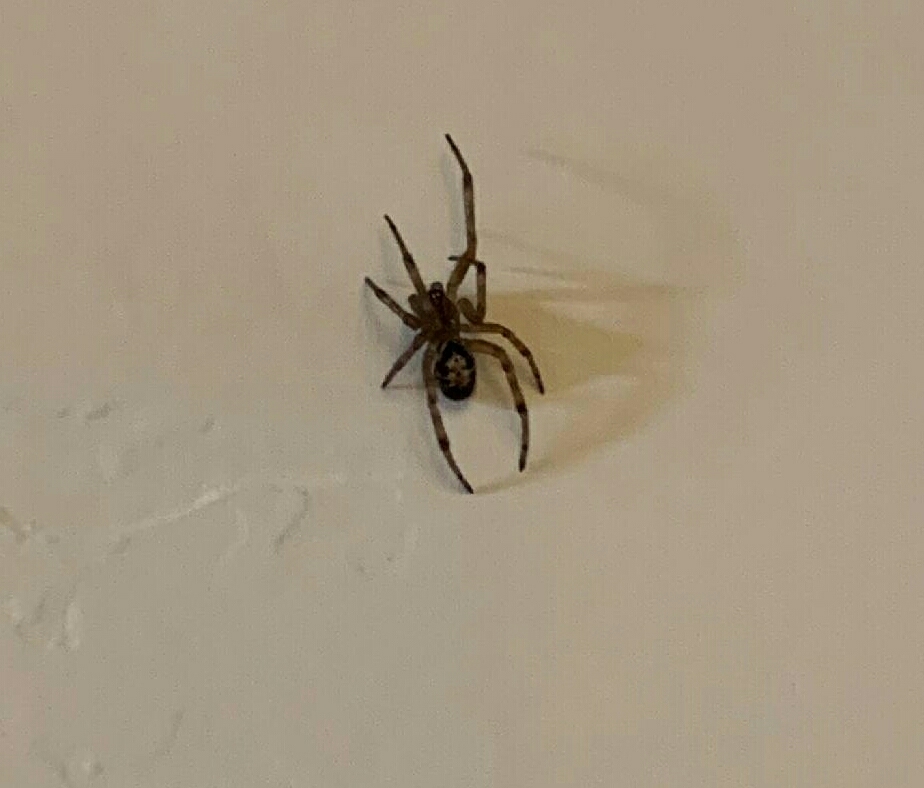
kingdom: Animalia
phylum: Arthropoda
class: Arachnida
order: Araneae
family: Theridiidae
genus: Steatoda
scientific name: Steatoda nobilis
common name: Cobweb weaver
